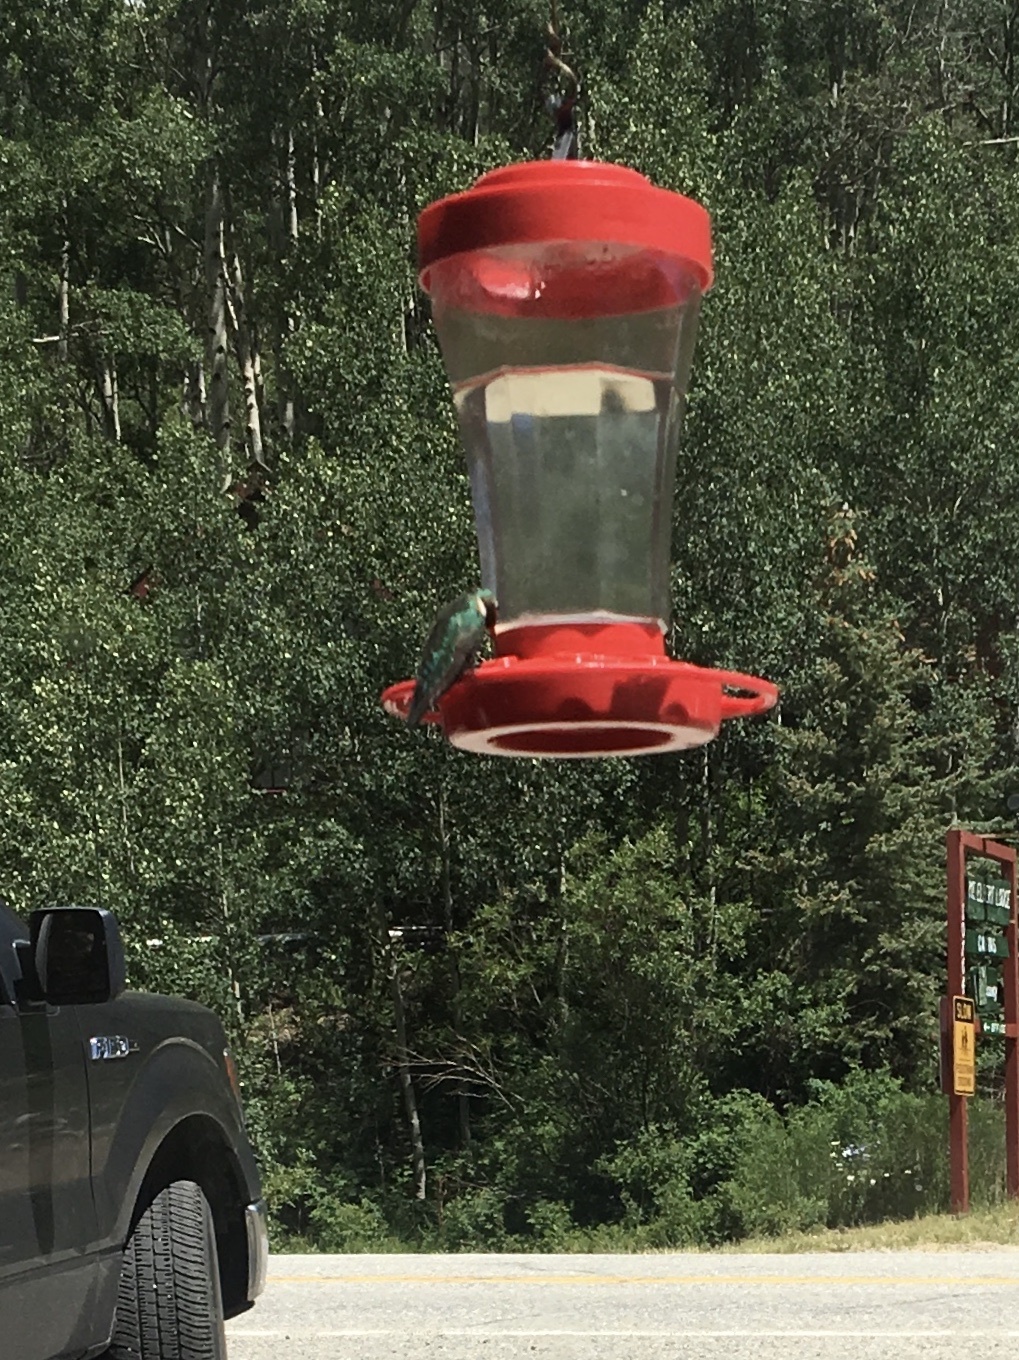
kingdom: Animalia
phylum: Chordata
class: Aves
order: Apodiformes
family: Trochilidae
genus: Selasphorus
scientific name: Selasphorus platycercus
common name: Broad-tailed hummingbird
